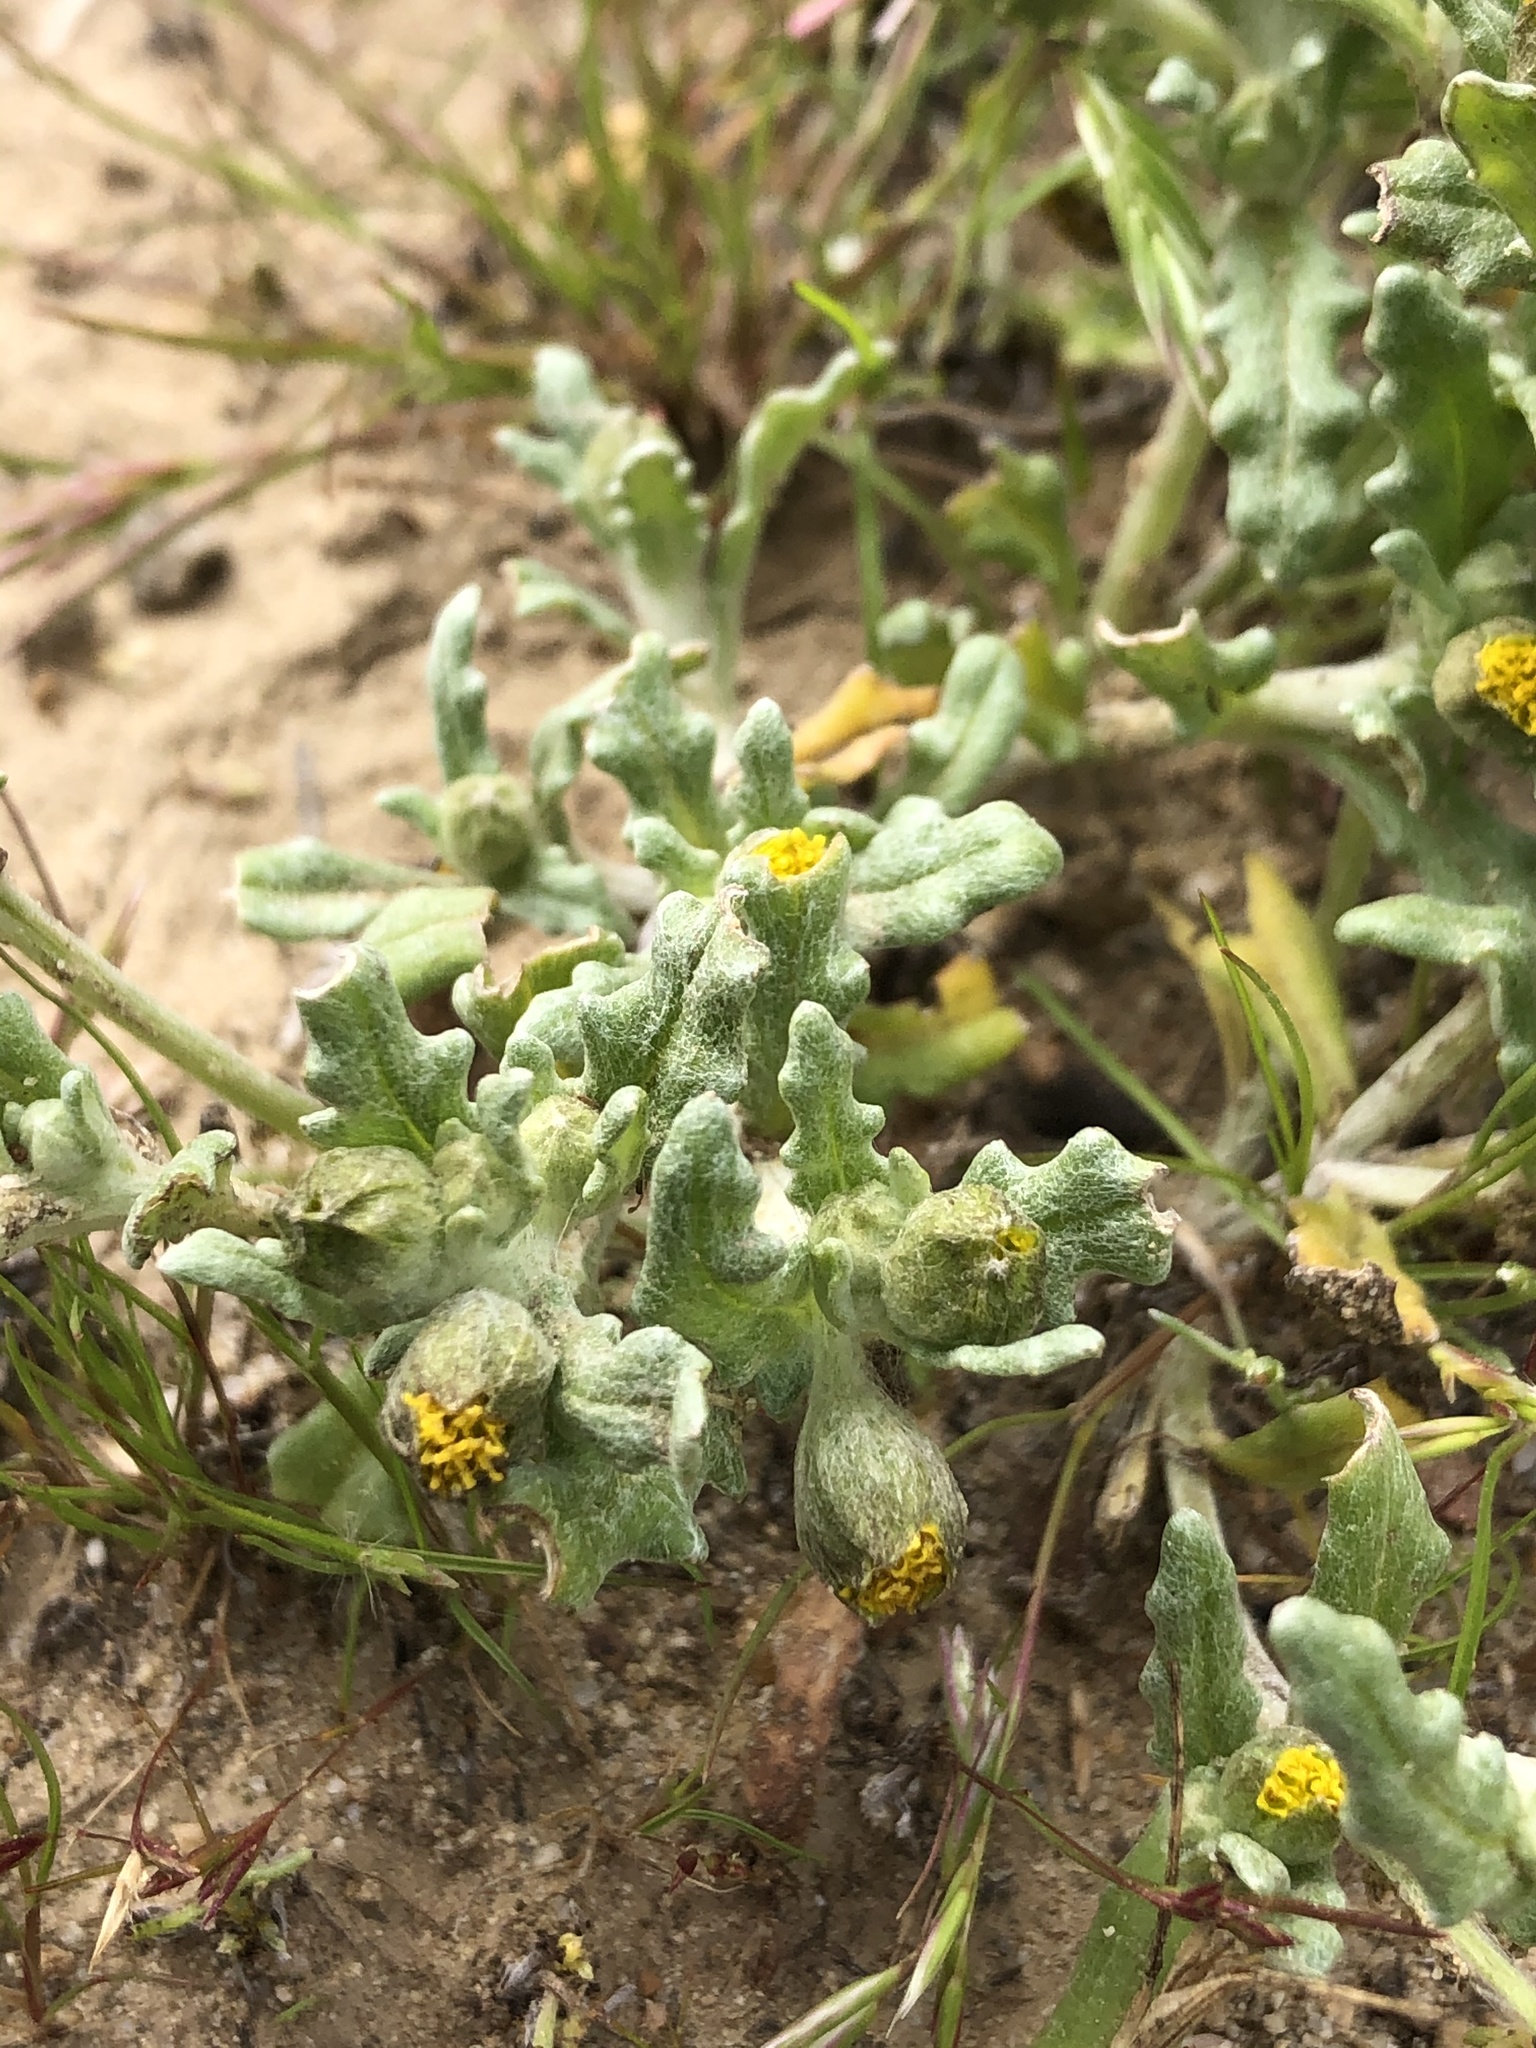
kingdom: Plantae
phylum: Tracheophyta
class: Magnoliopsida
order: Asterales
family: Asteraceae
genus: Monolopia
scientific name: Monolopia congdonii
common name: San joaquin woolly-threads
